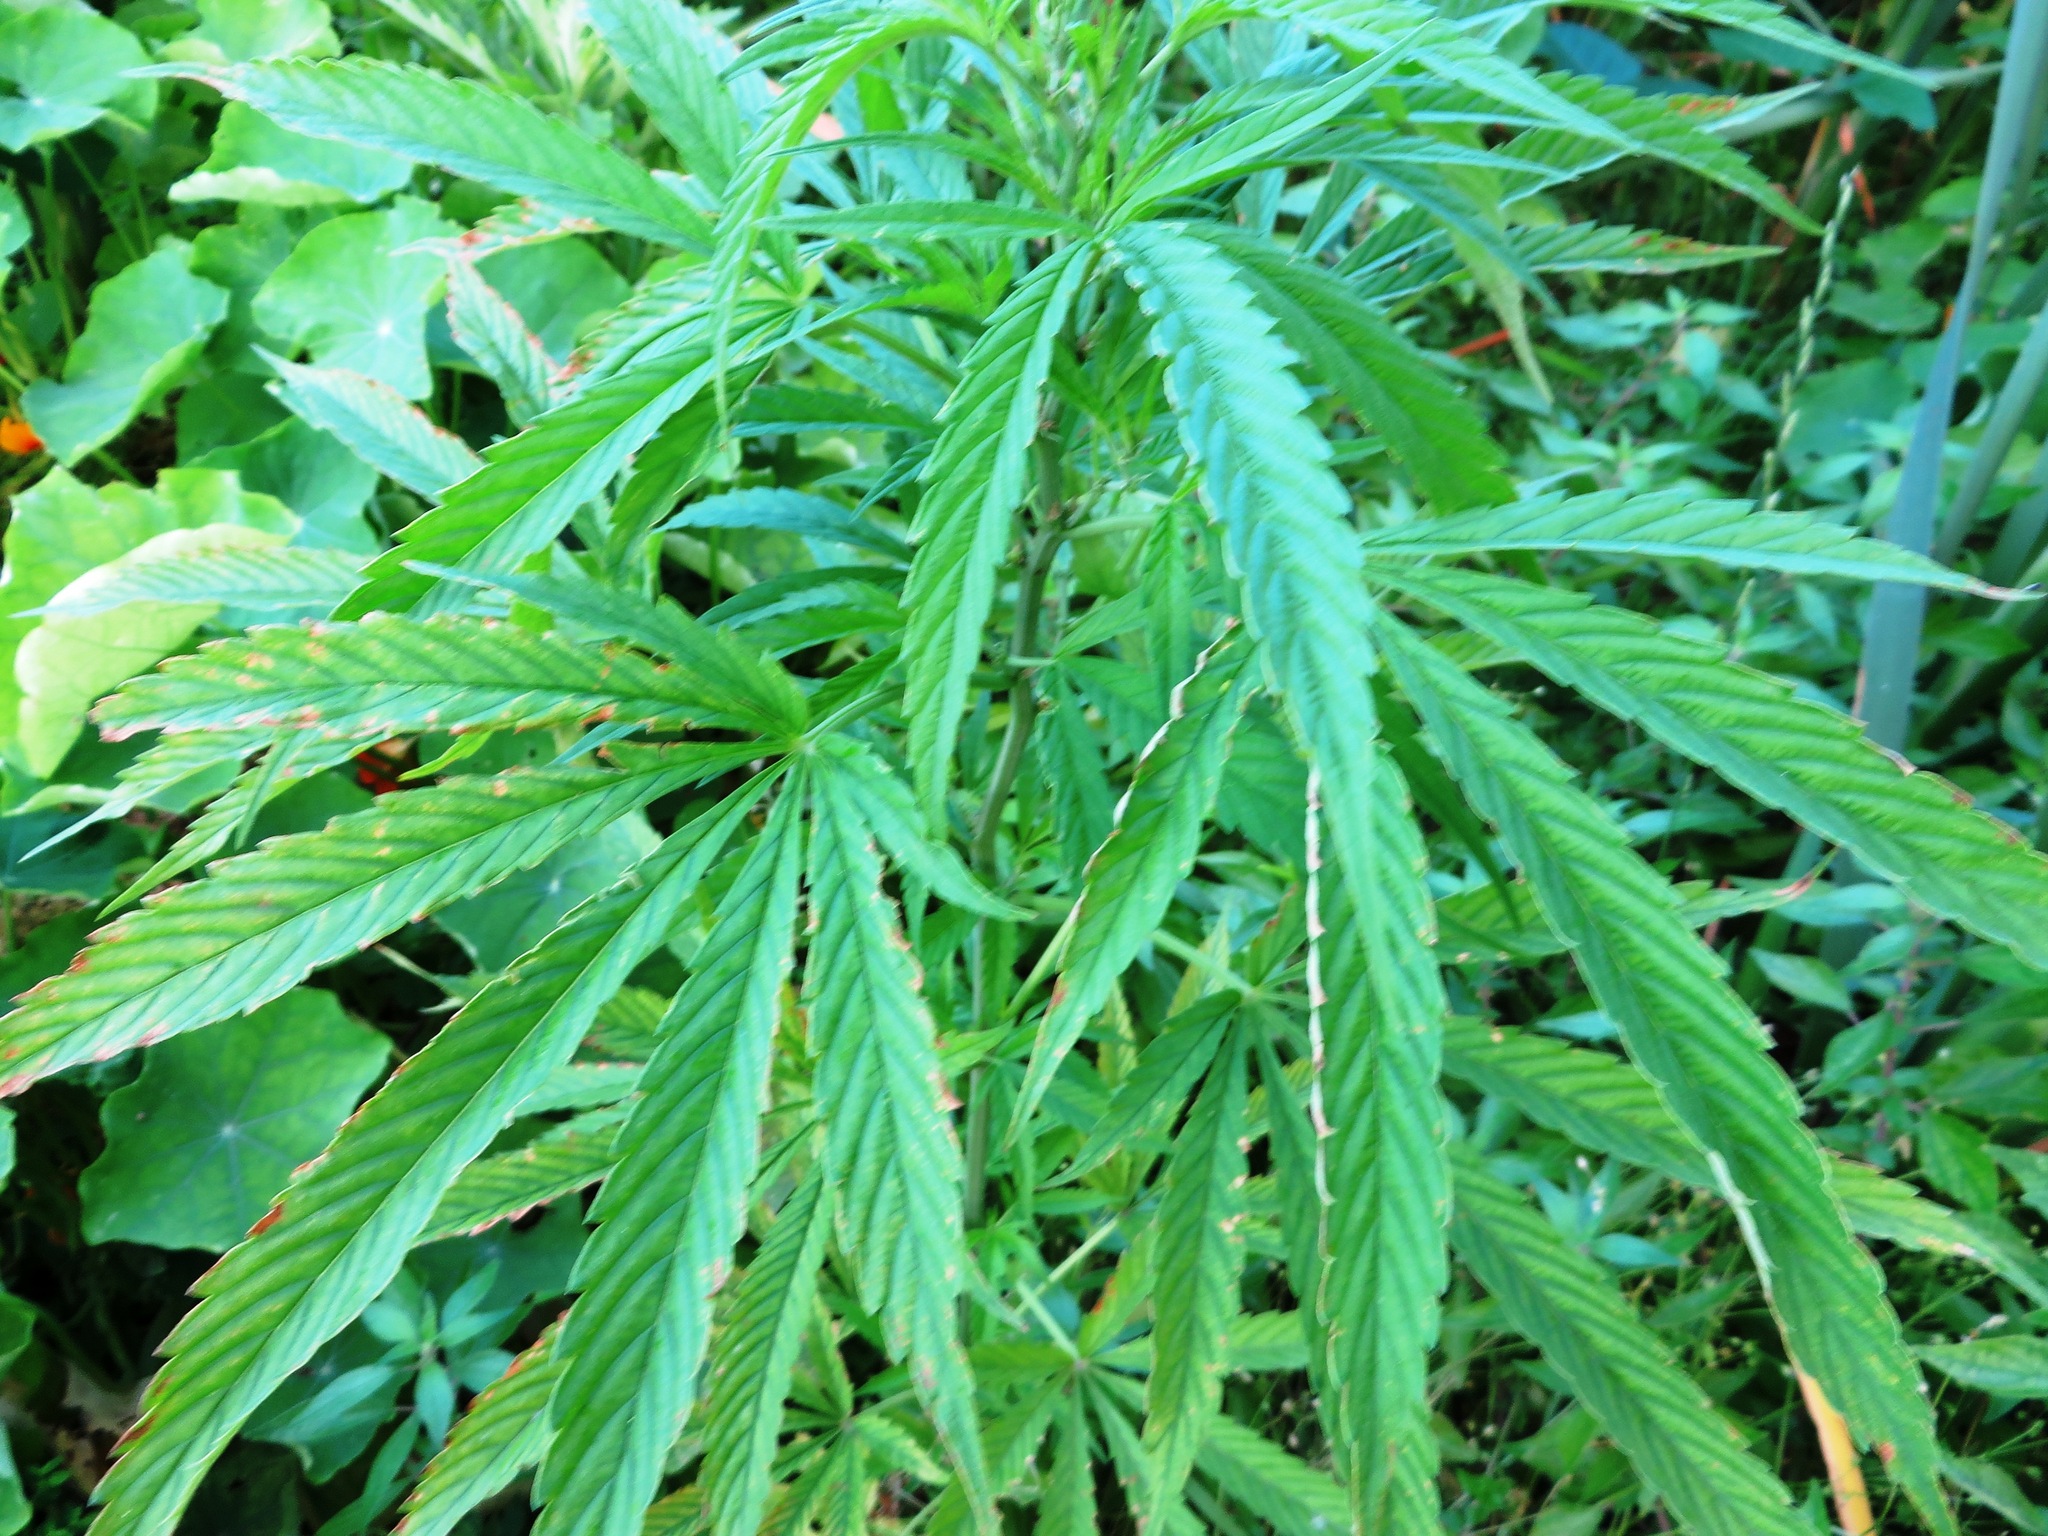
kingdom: Plantae
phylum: Tracheophyta
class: Magnoliopsida
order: Rosales
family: Cannabaceae
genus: Cannabis
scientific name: Cannabis sativa
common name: Hemp
